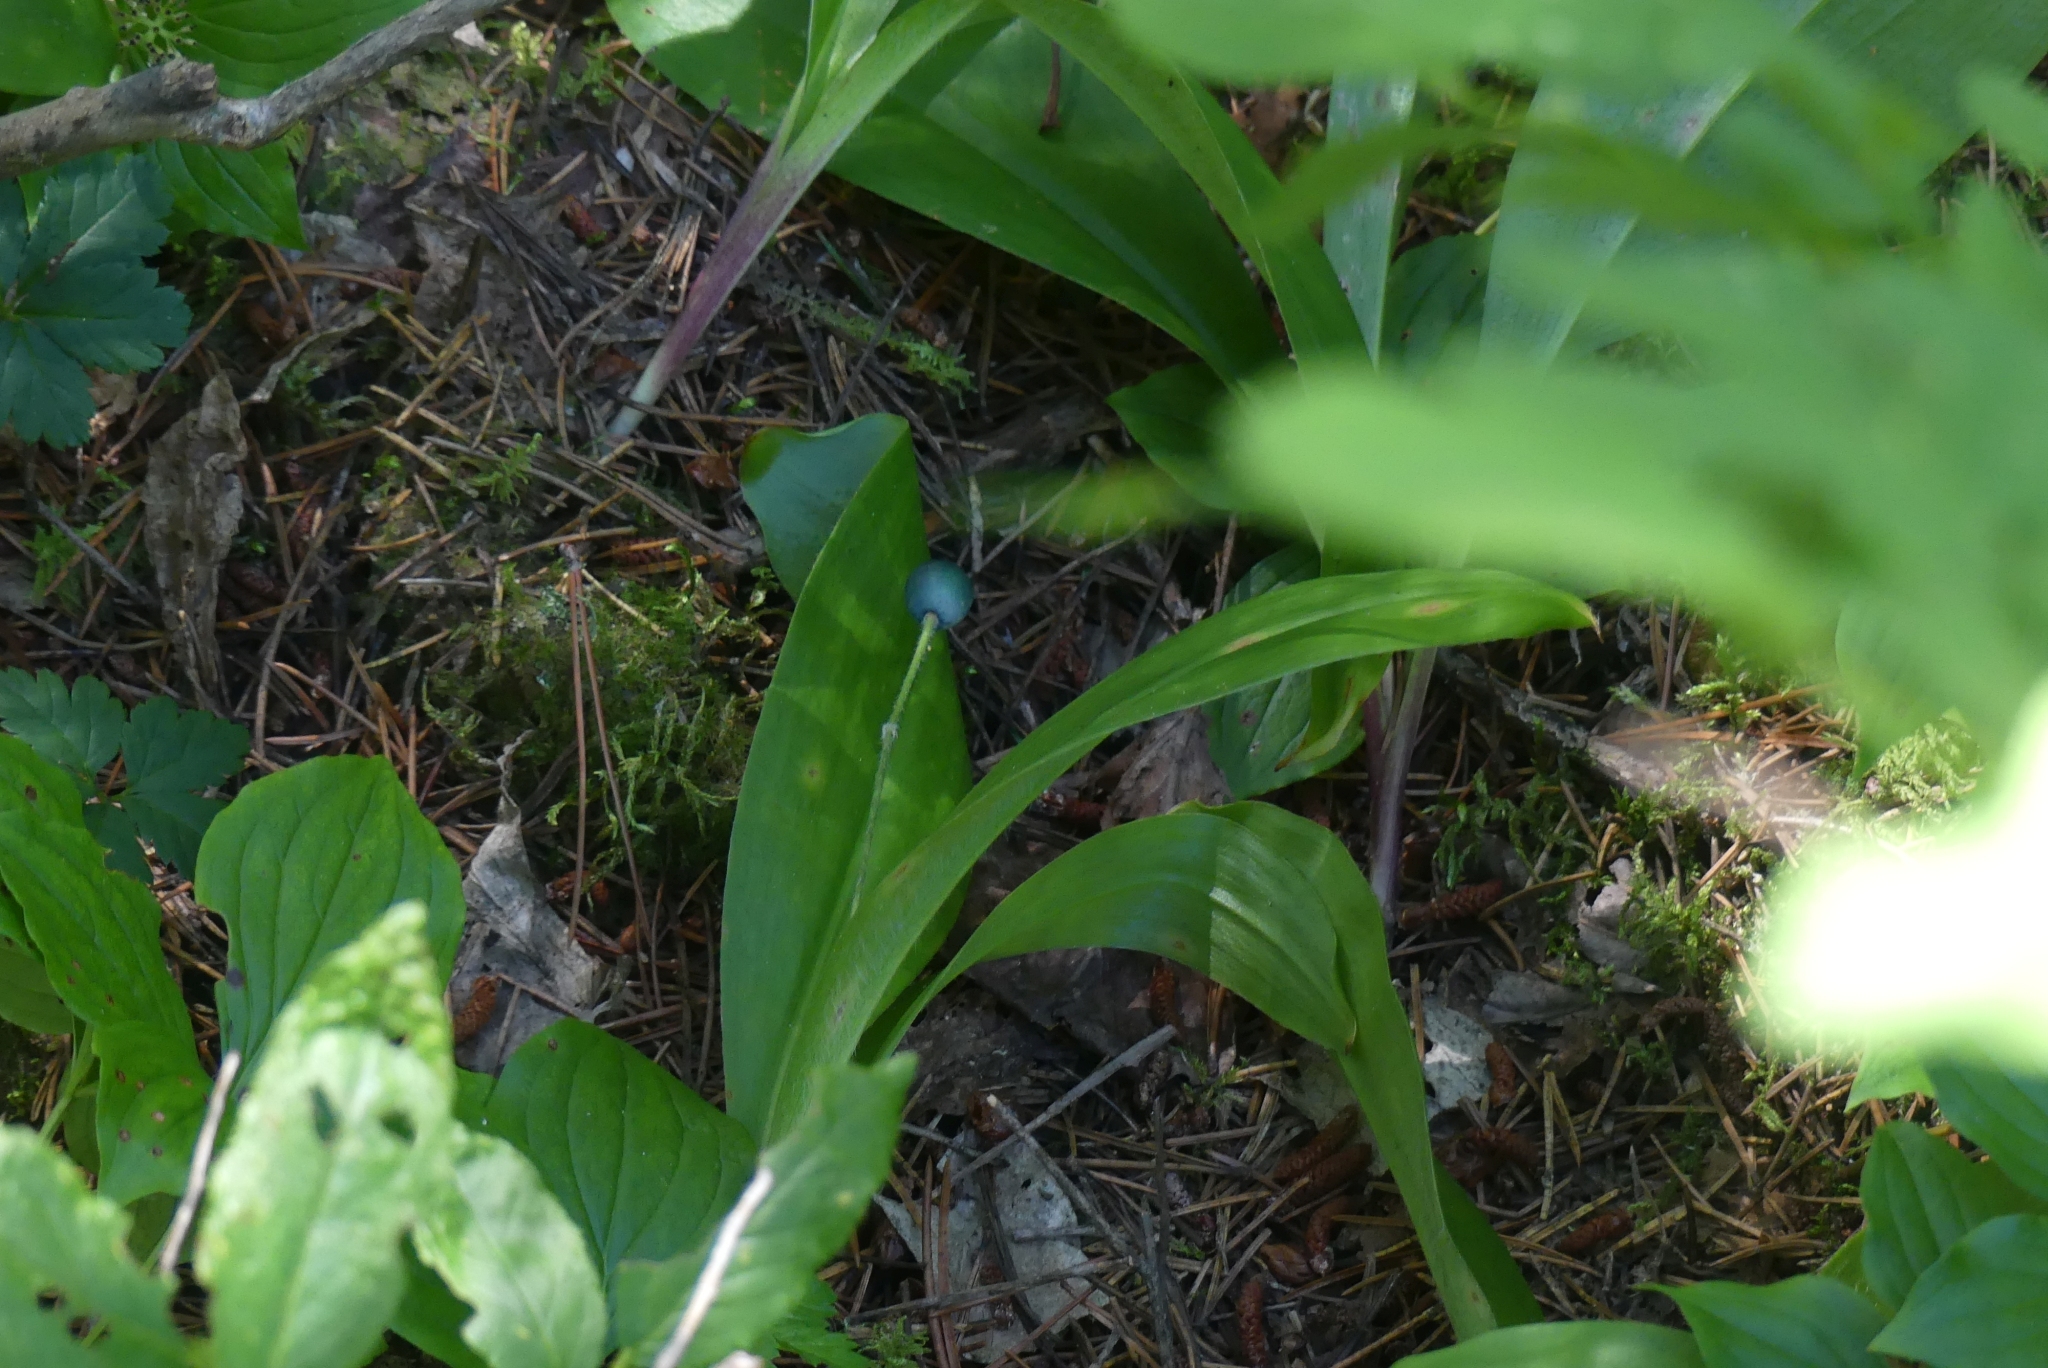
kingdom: Plantae
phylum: Tracheophyta
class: Liliopsida
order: Liliales
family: Liliaceae
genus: Clintonia
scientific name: Clintonia uniflora
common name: Queen's cup
